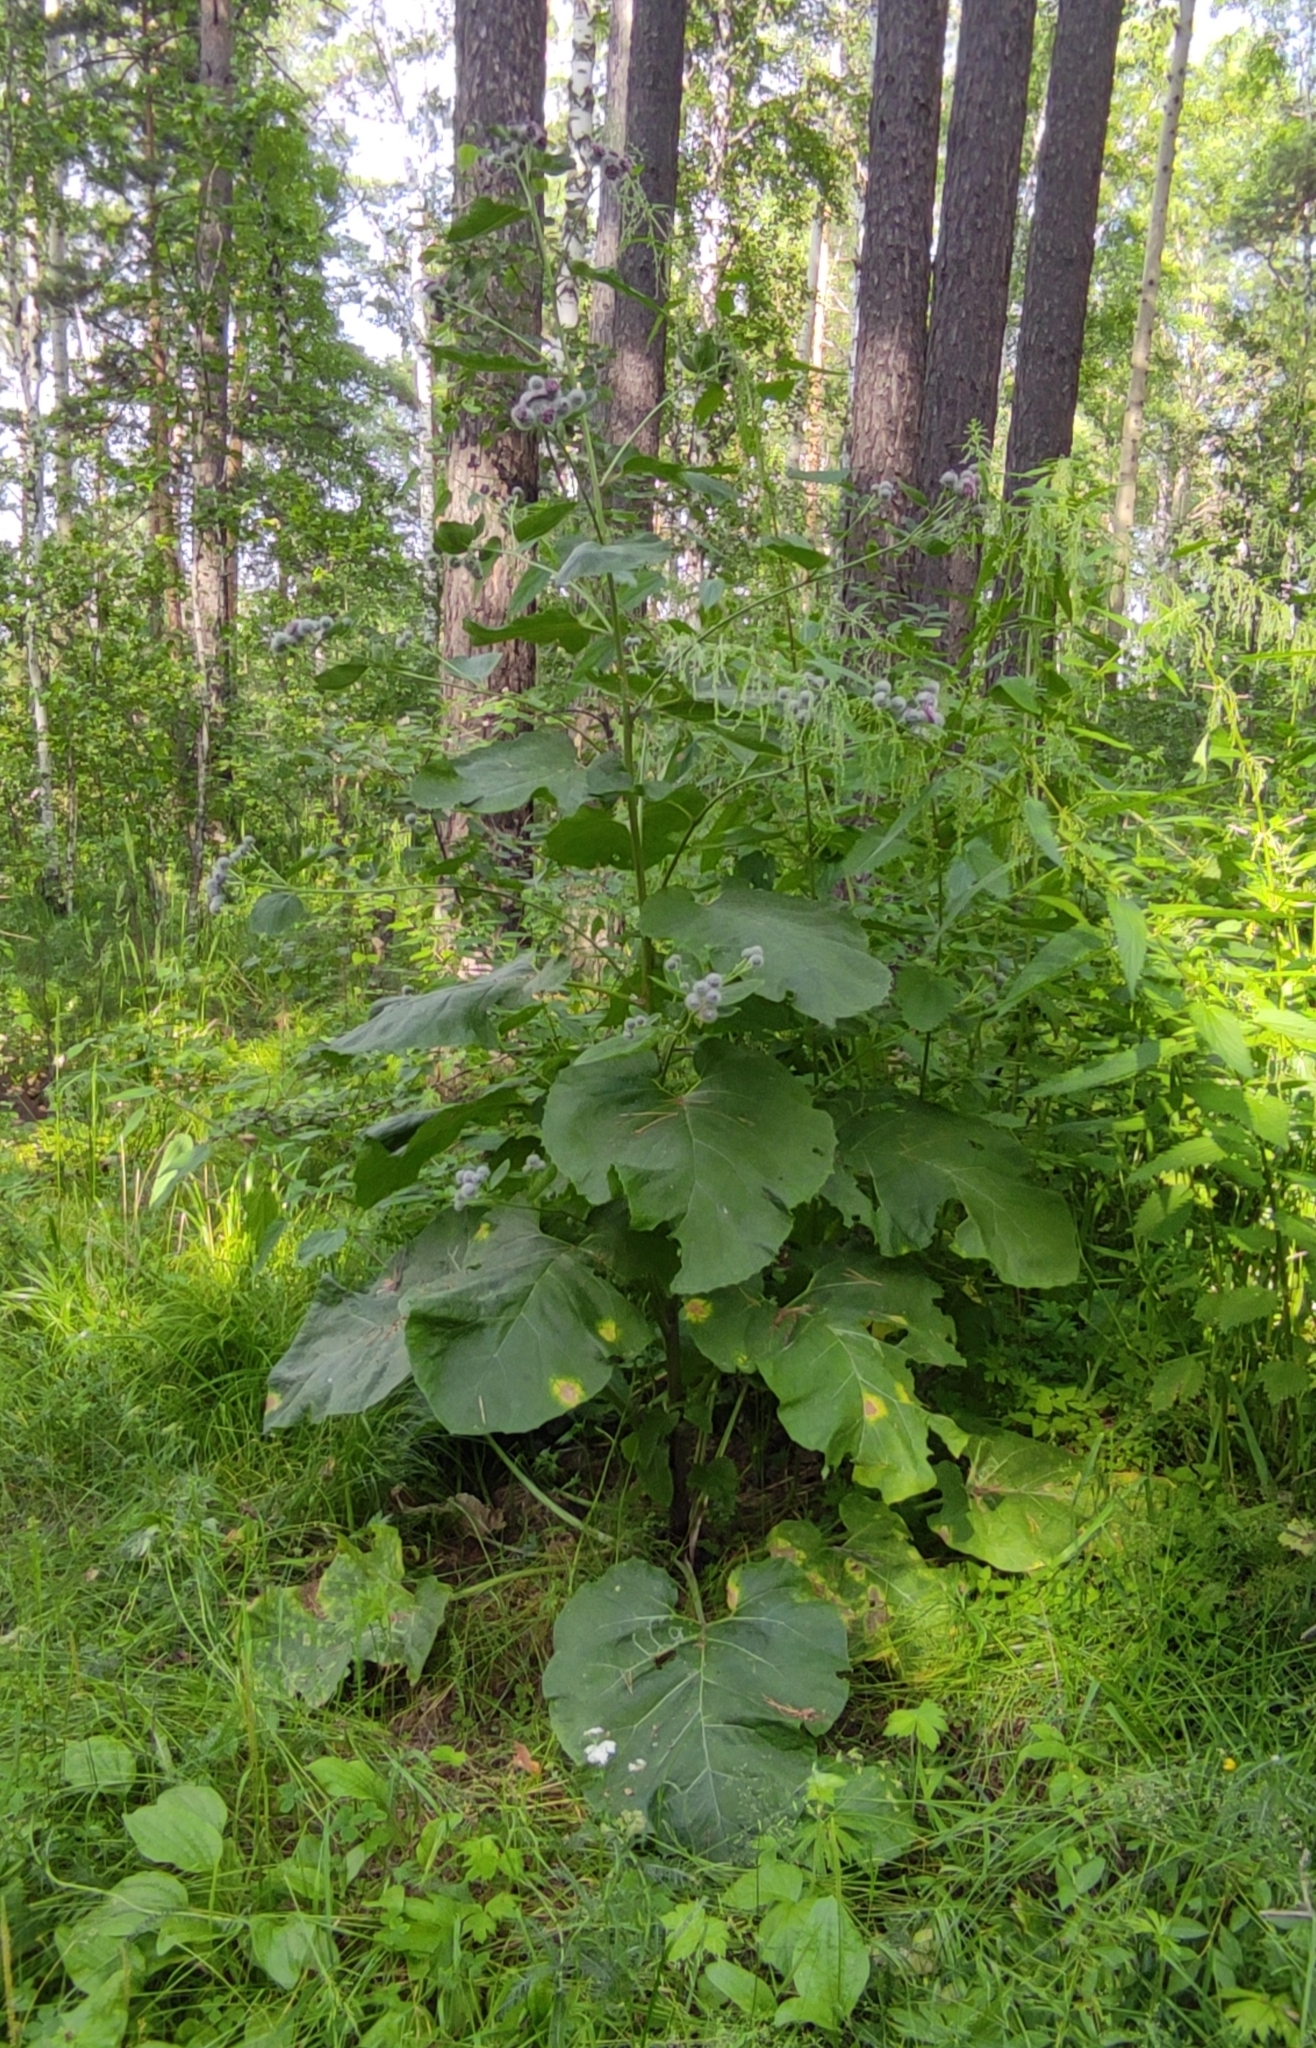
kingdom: Plantae
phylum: Tracheophyta
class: Magnoliopsida
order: Asterales
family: Asteraceae
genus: Arctium
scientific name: Arctium tomentosum
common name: Woolly burdock
